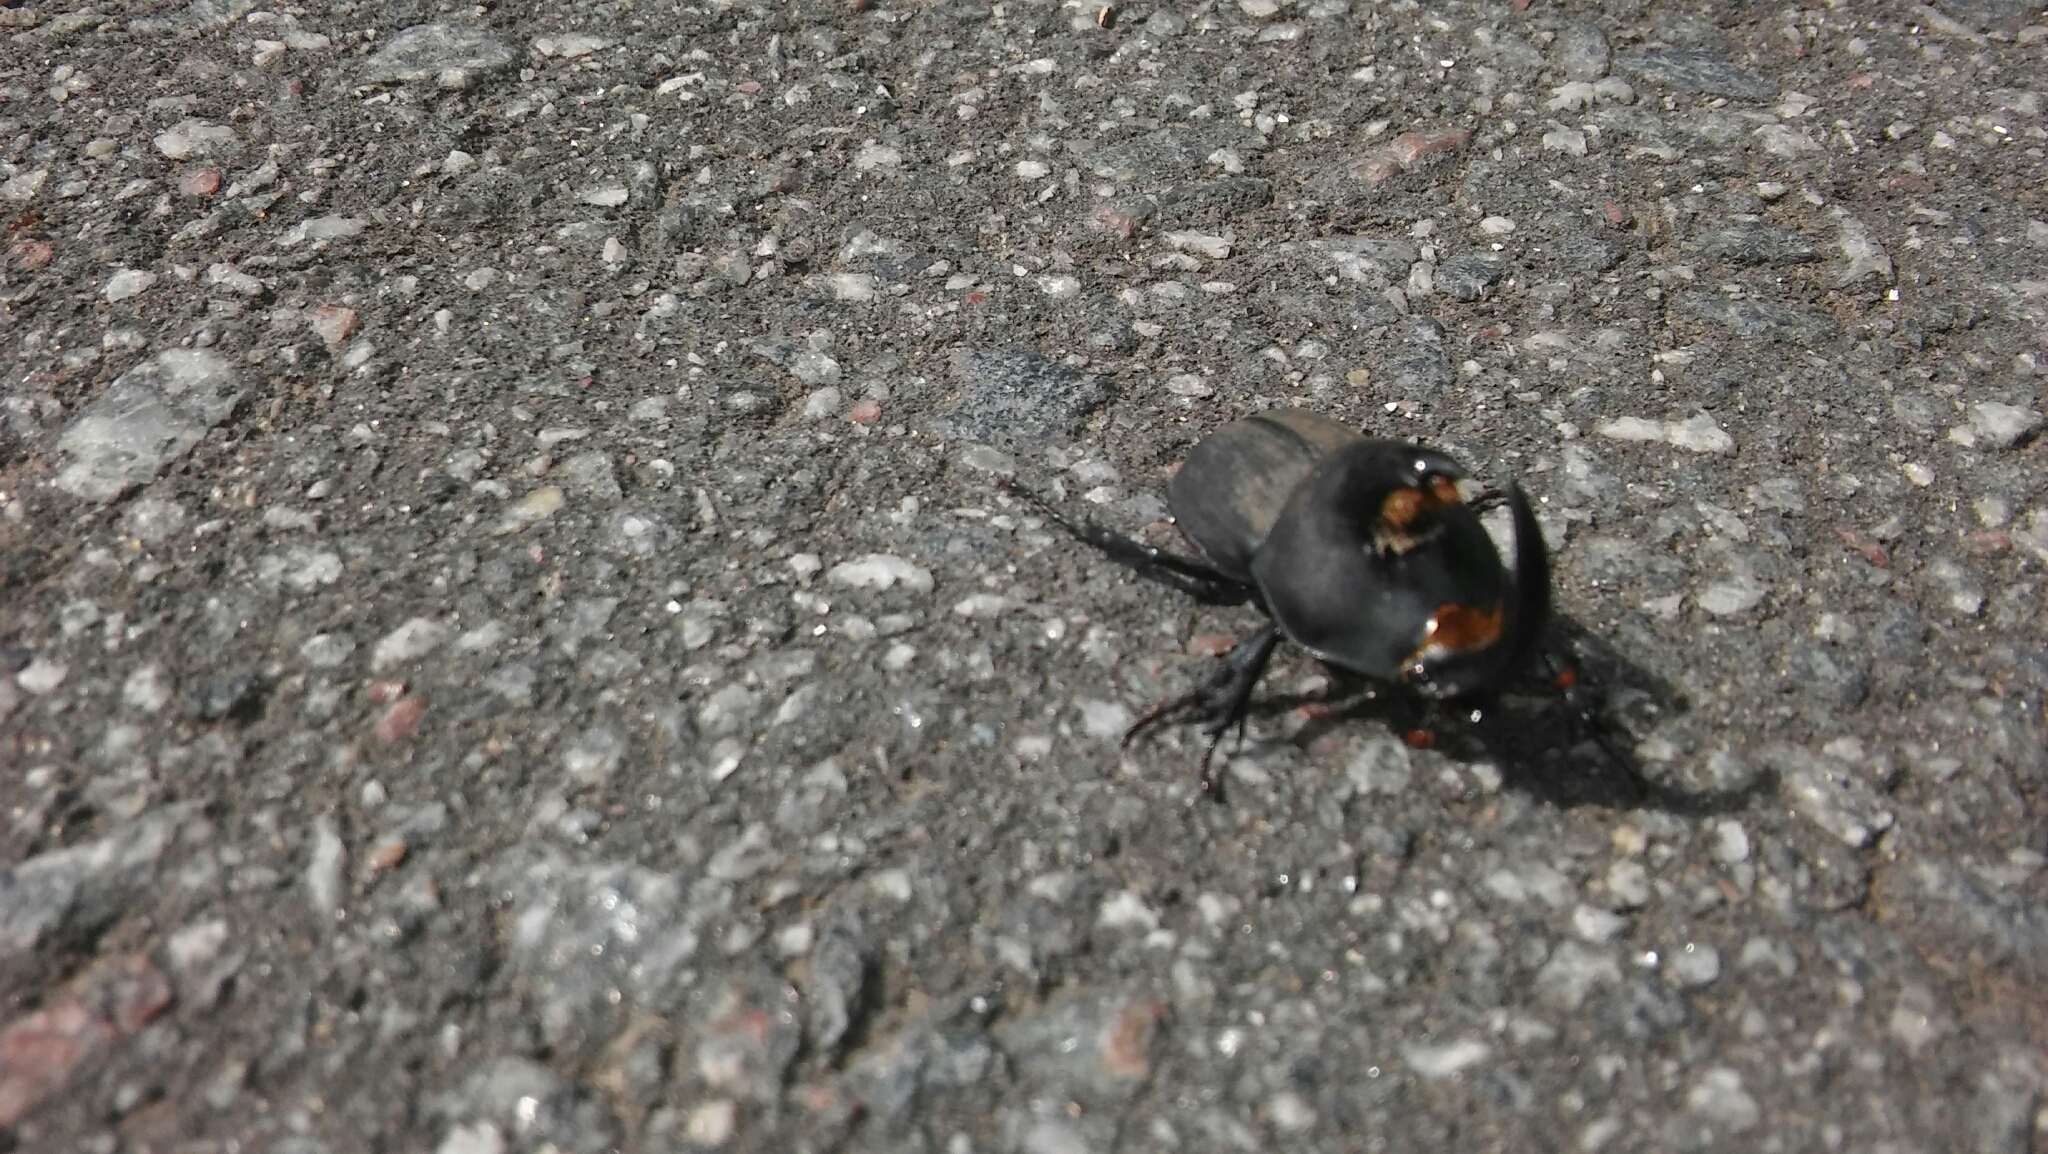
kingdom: Animalia
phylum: Arthropoda
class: Insecta
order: Coleoptera
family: Scarabaeidae
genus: Diloboderus
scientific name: Diloboderus abderus
